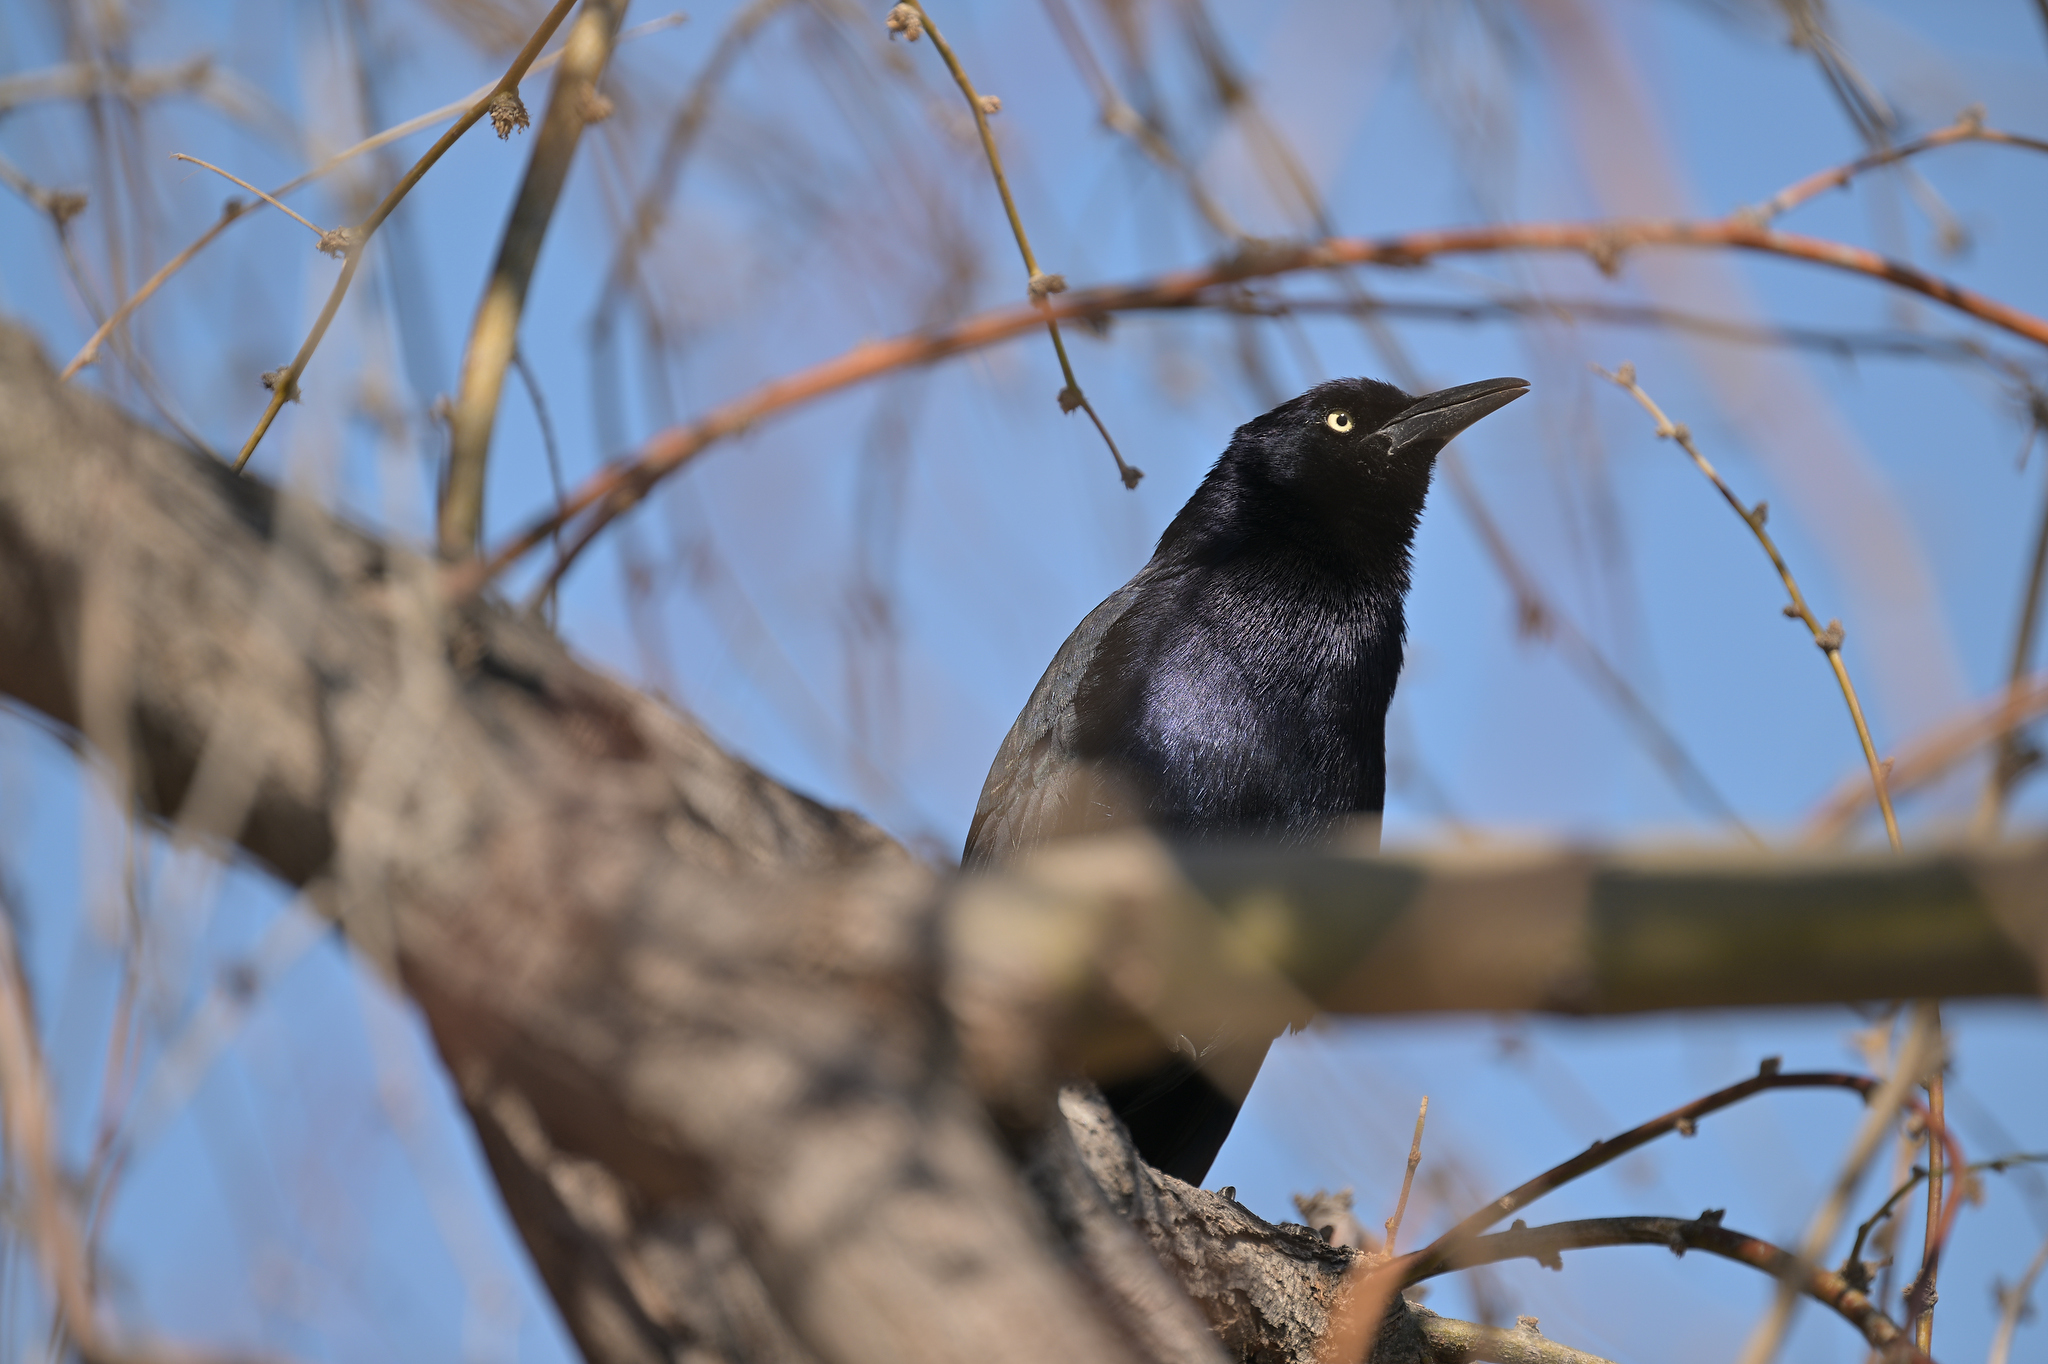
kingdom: Animalia
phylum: Chordata
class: Aves
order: Passeriformes
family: Icteridae
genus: Quiscalus
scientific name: Quiscalus mexicanus
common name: Great-tailed grackle
